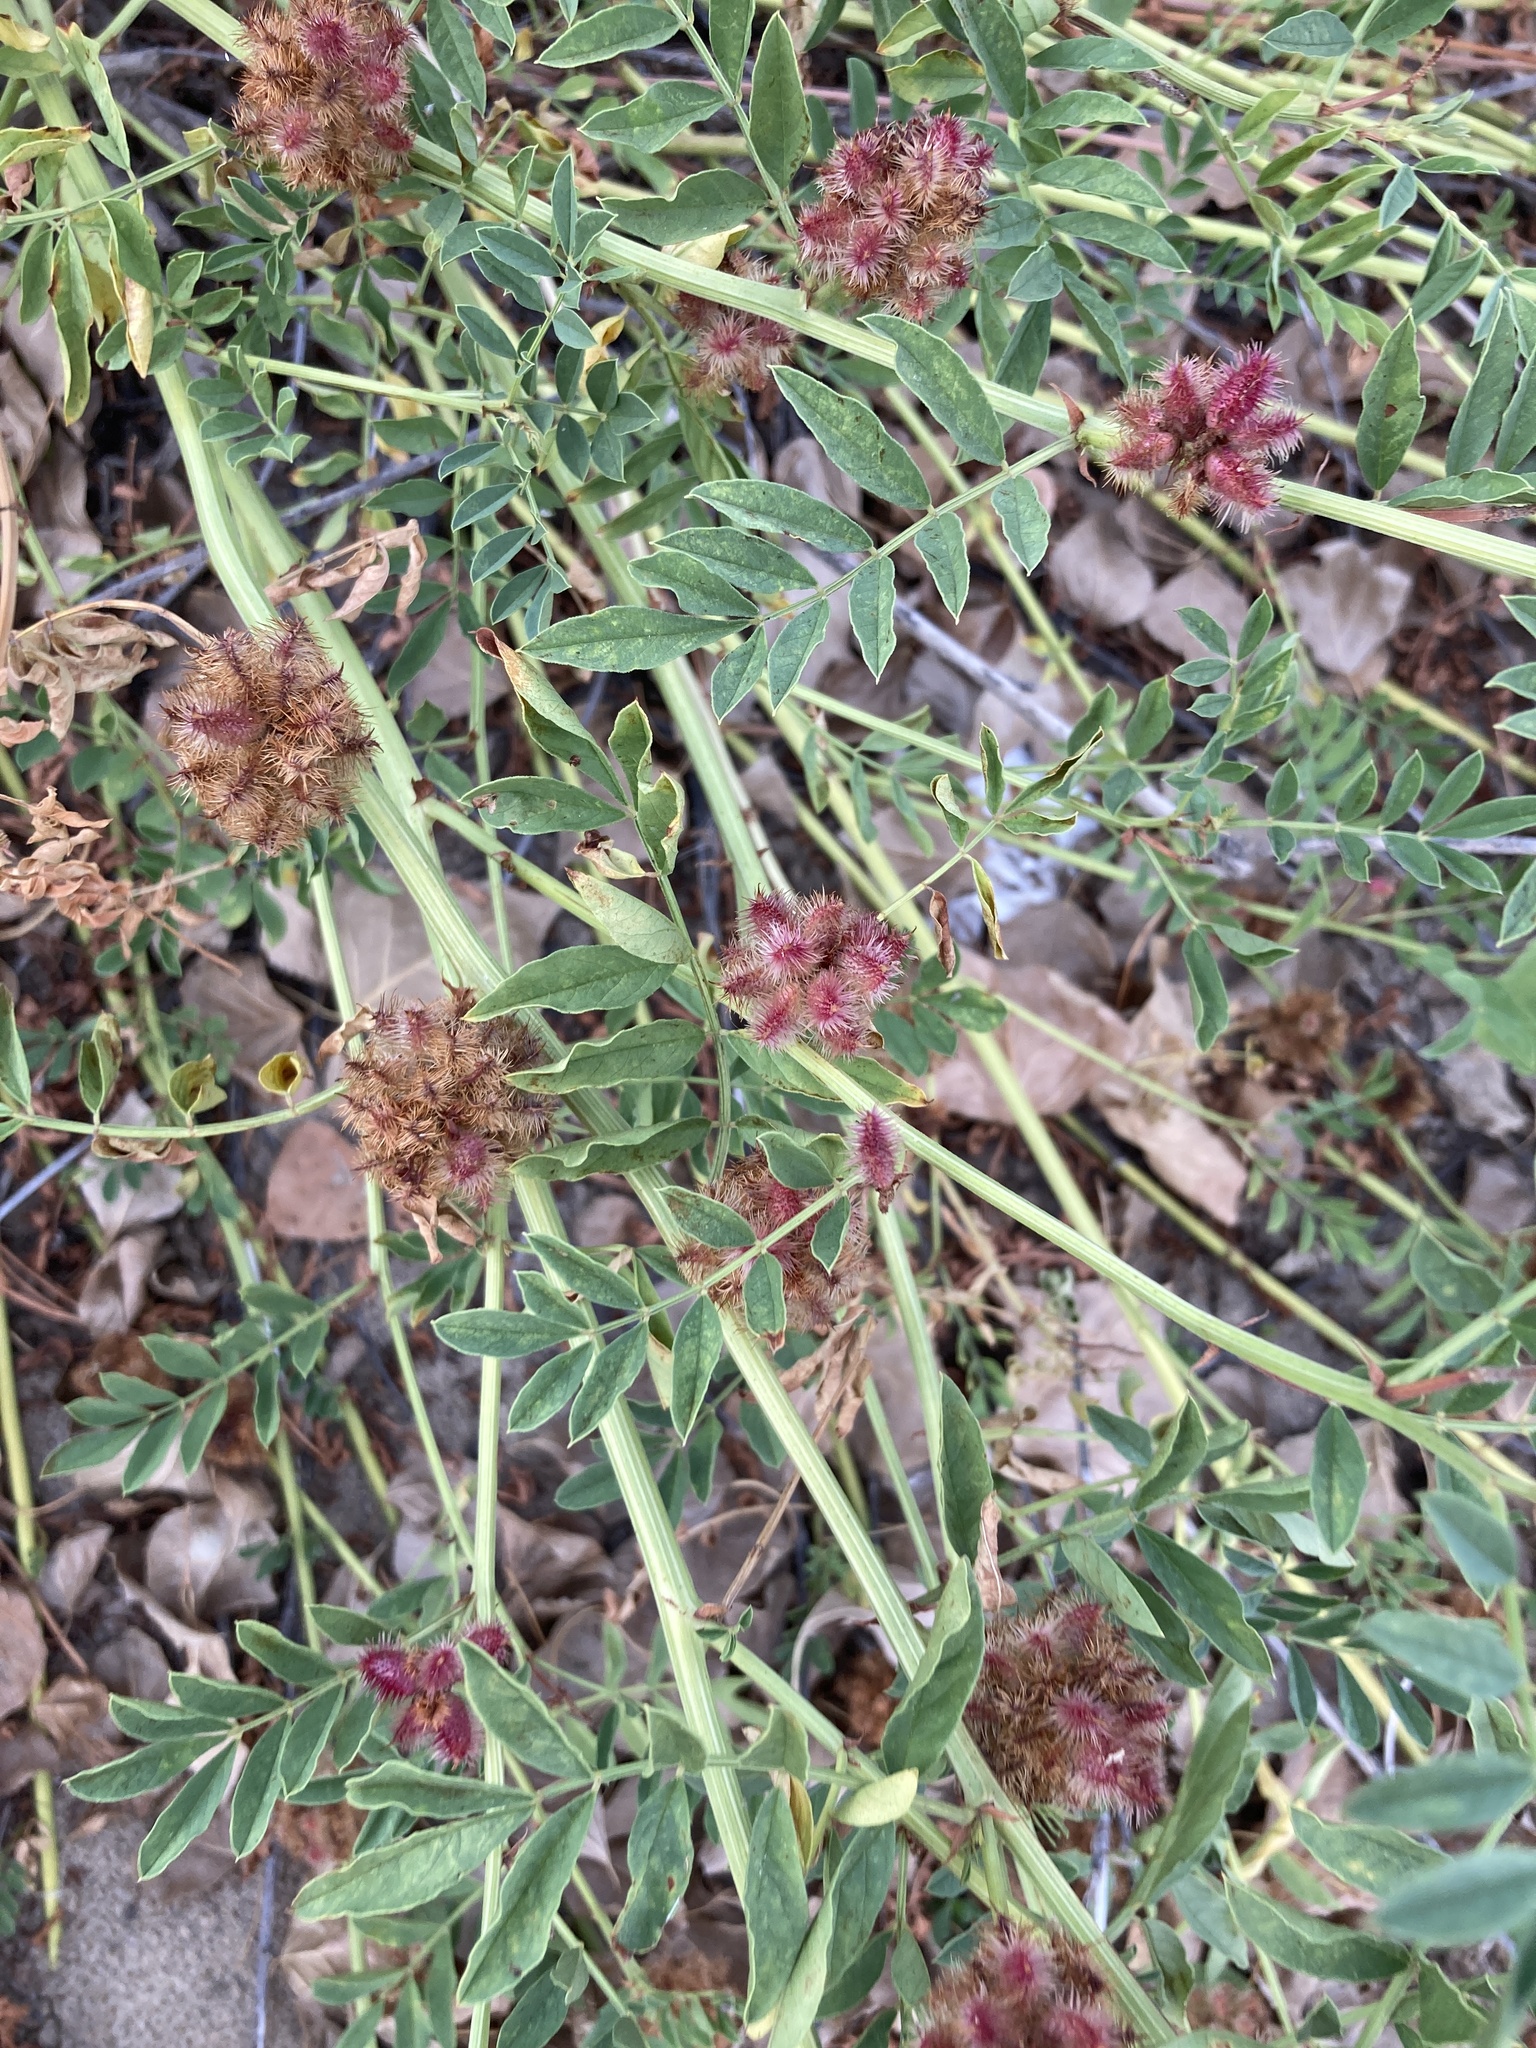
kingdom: Plantae
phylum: Tracheophyta
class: Magnoliopsida
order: Fabales
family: Fabaceae
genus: Glycyrrhiza
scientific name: Glycyrrhiza echinata
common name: German liquorice
